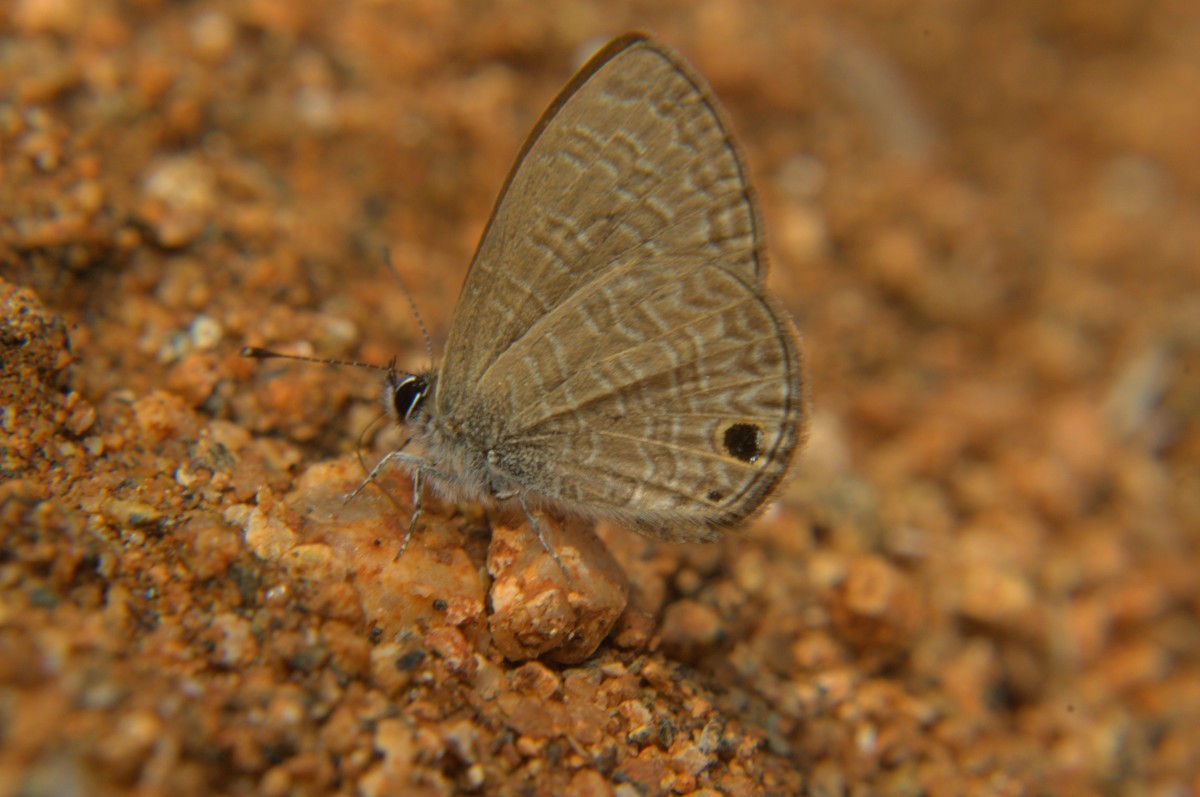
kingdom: Animalia
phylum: Arthropoda
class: Insecta
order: Lepidoptera
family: Lycaenidae
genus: Prosotas
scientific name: Prosotas dubiosa
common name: Tailless lineblue
